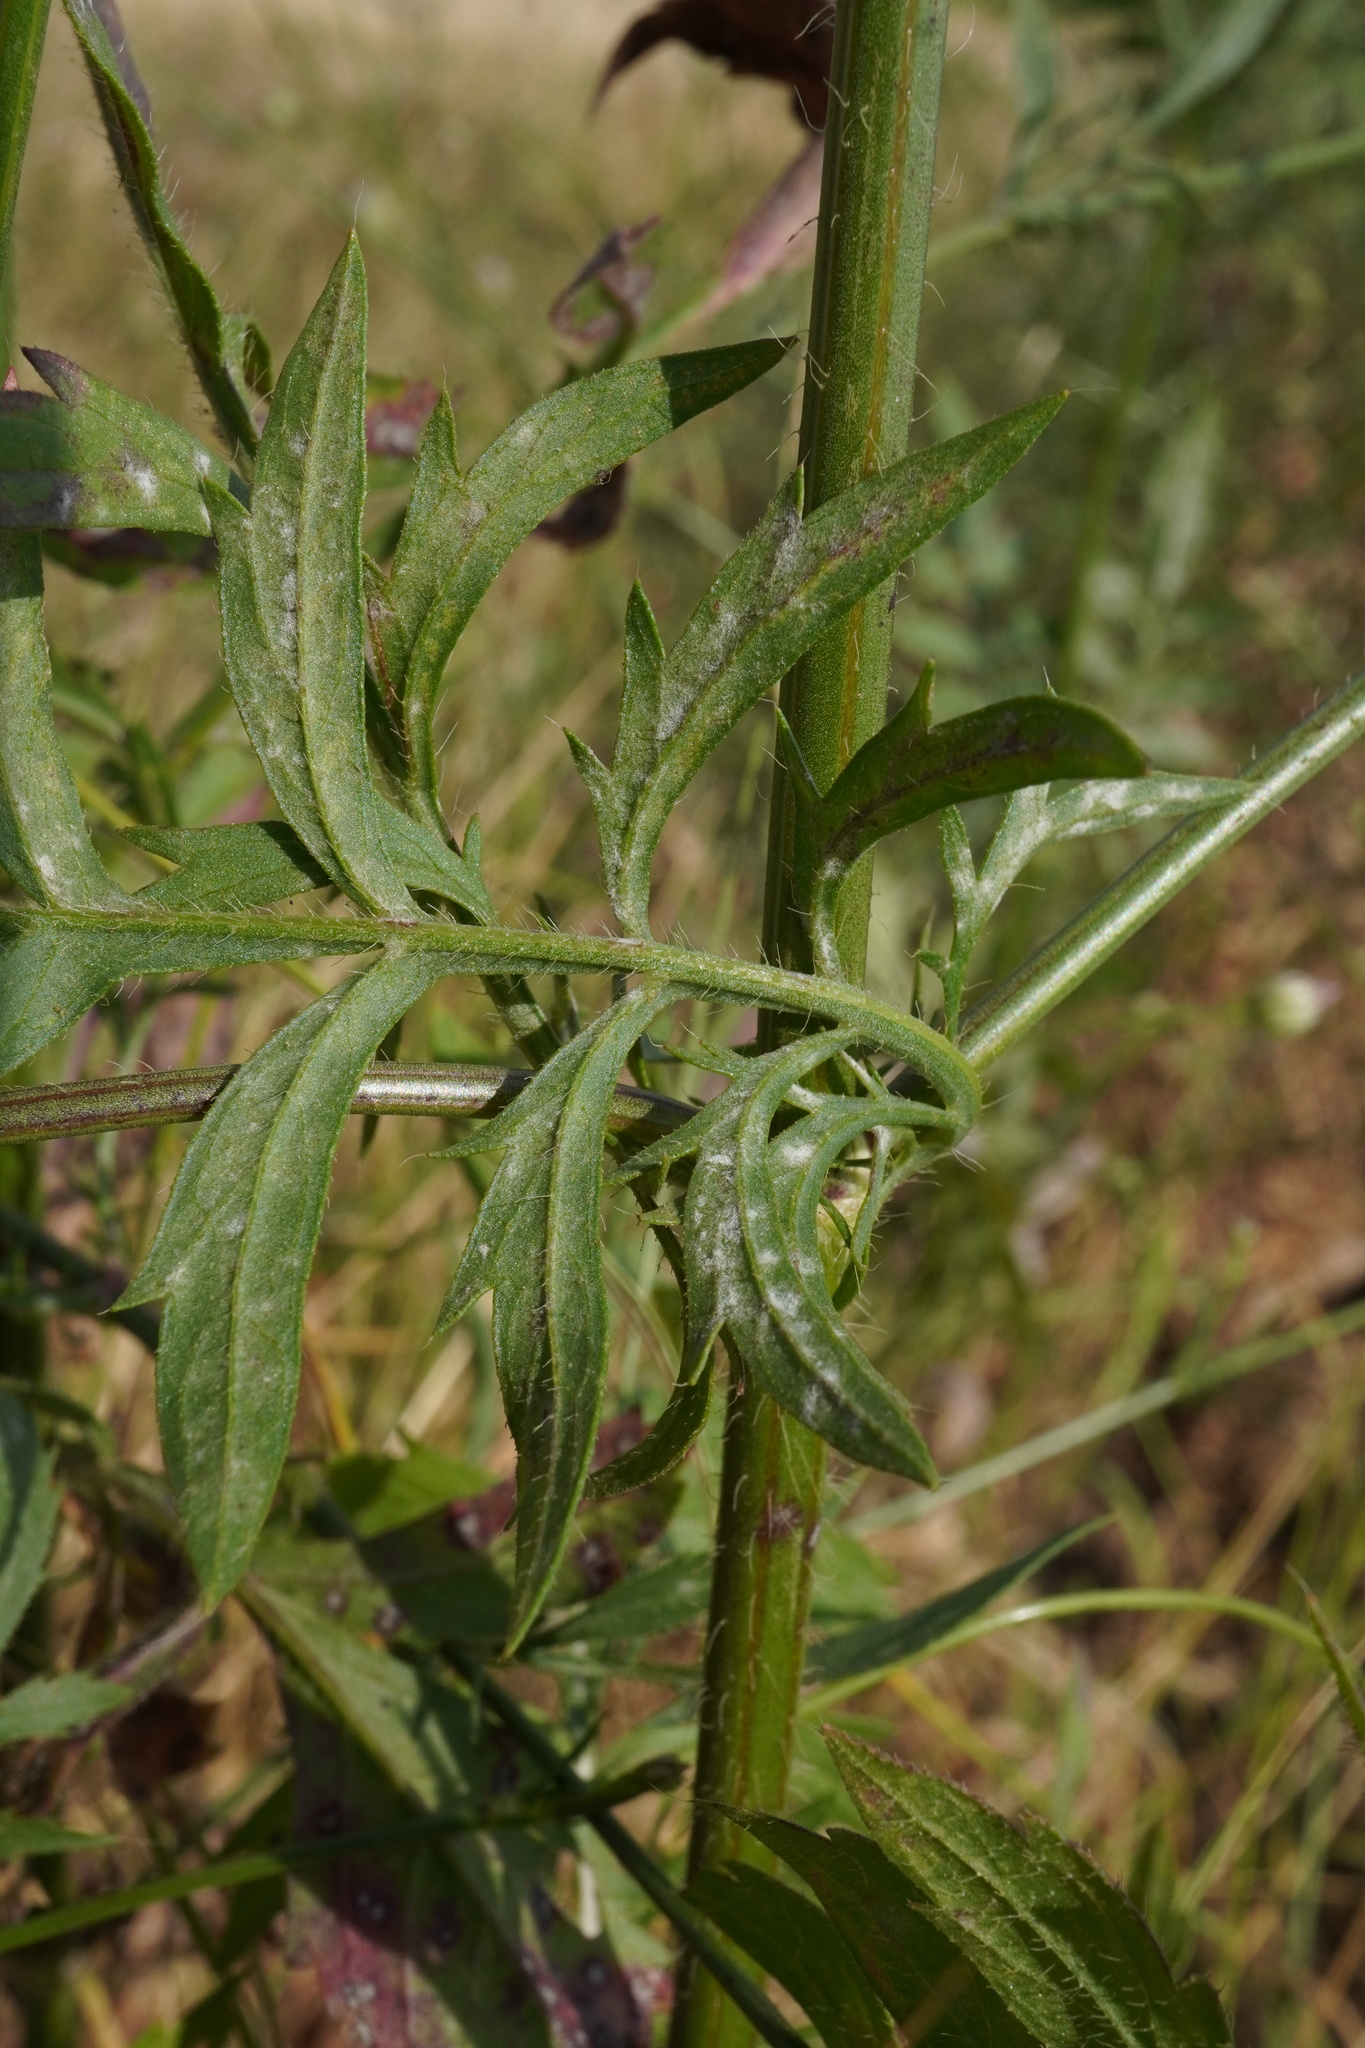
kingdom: Plantae
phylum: Tracheophyta
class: Magnoliopsida
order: Dipsacales
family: Caprifoliaceae
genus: Cephalaria
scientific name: Cephalaria transsylvanica
